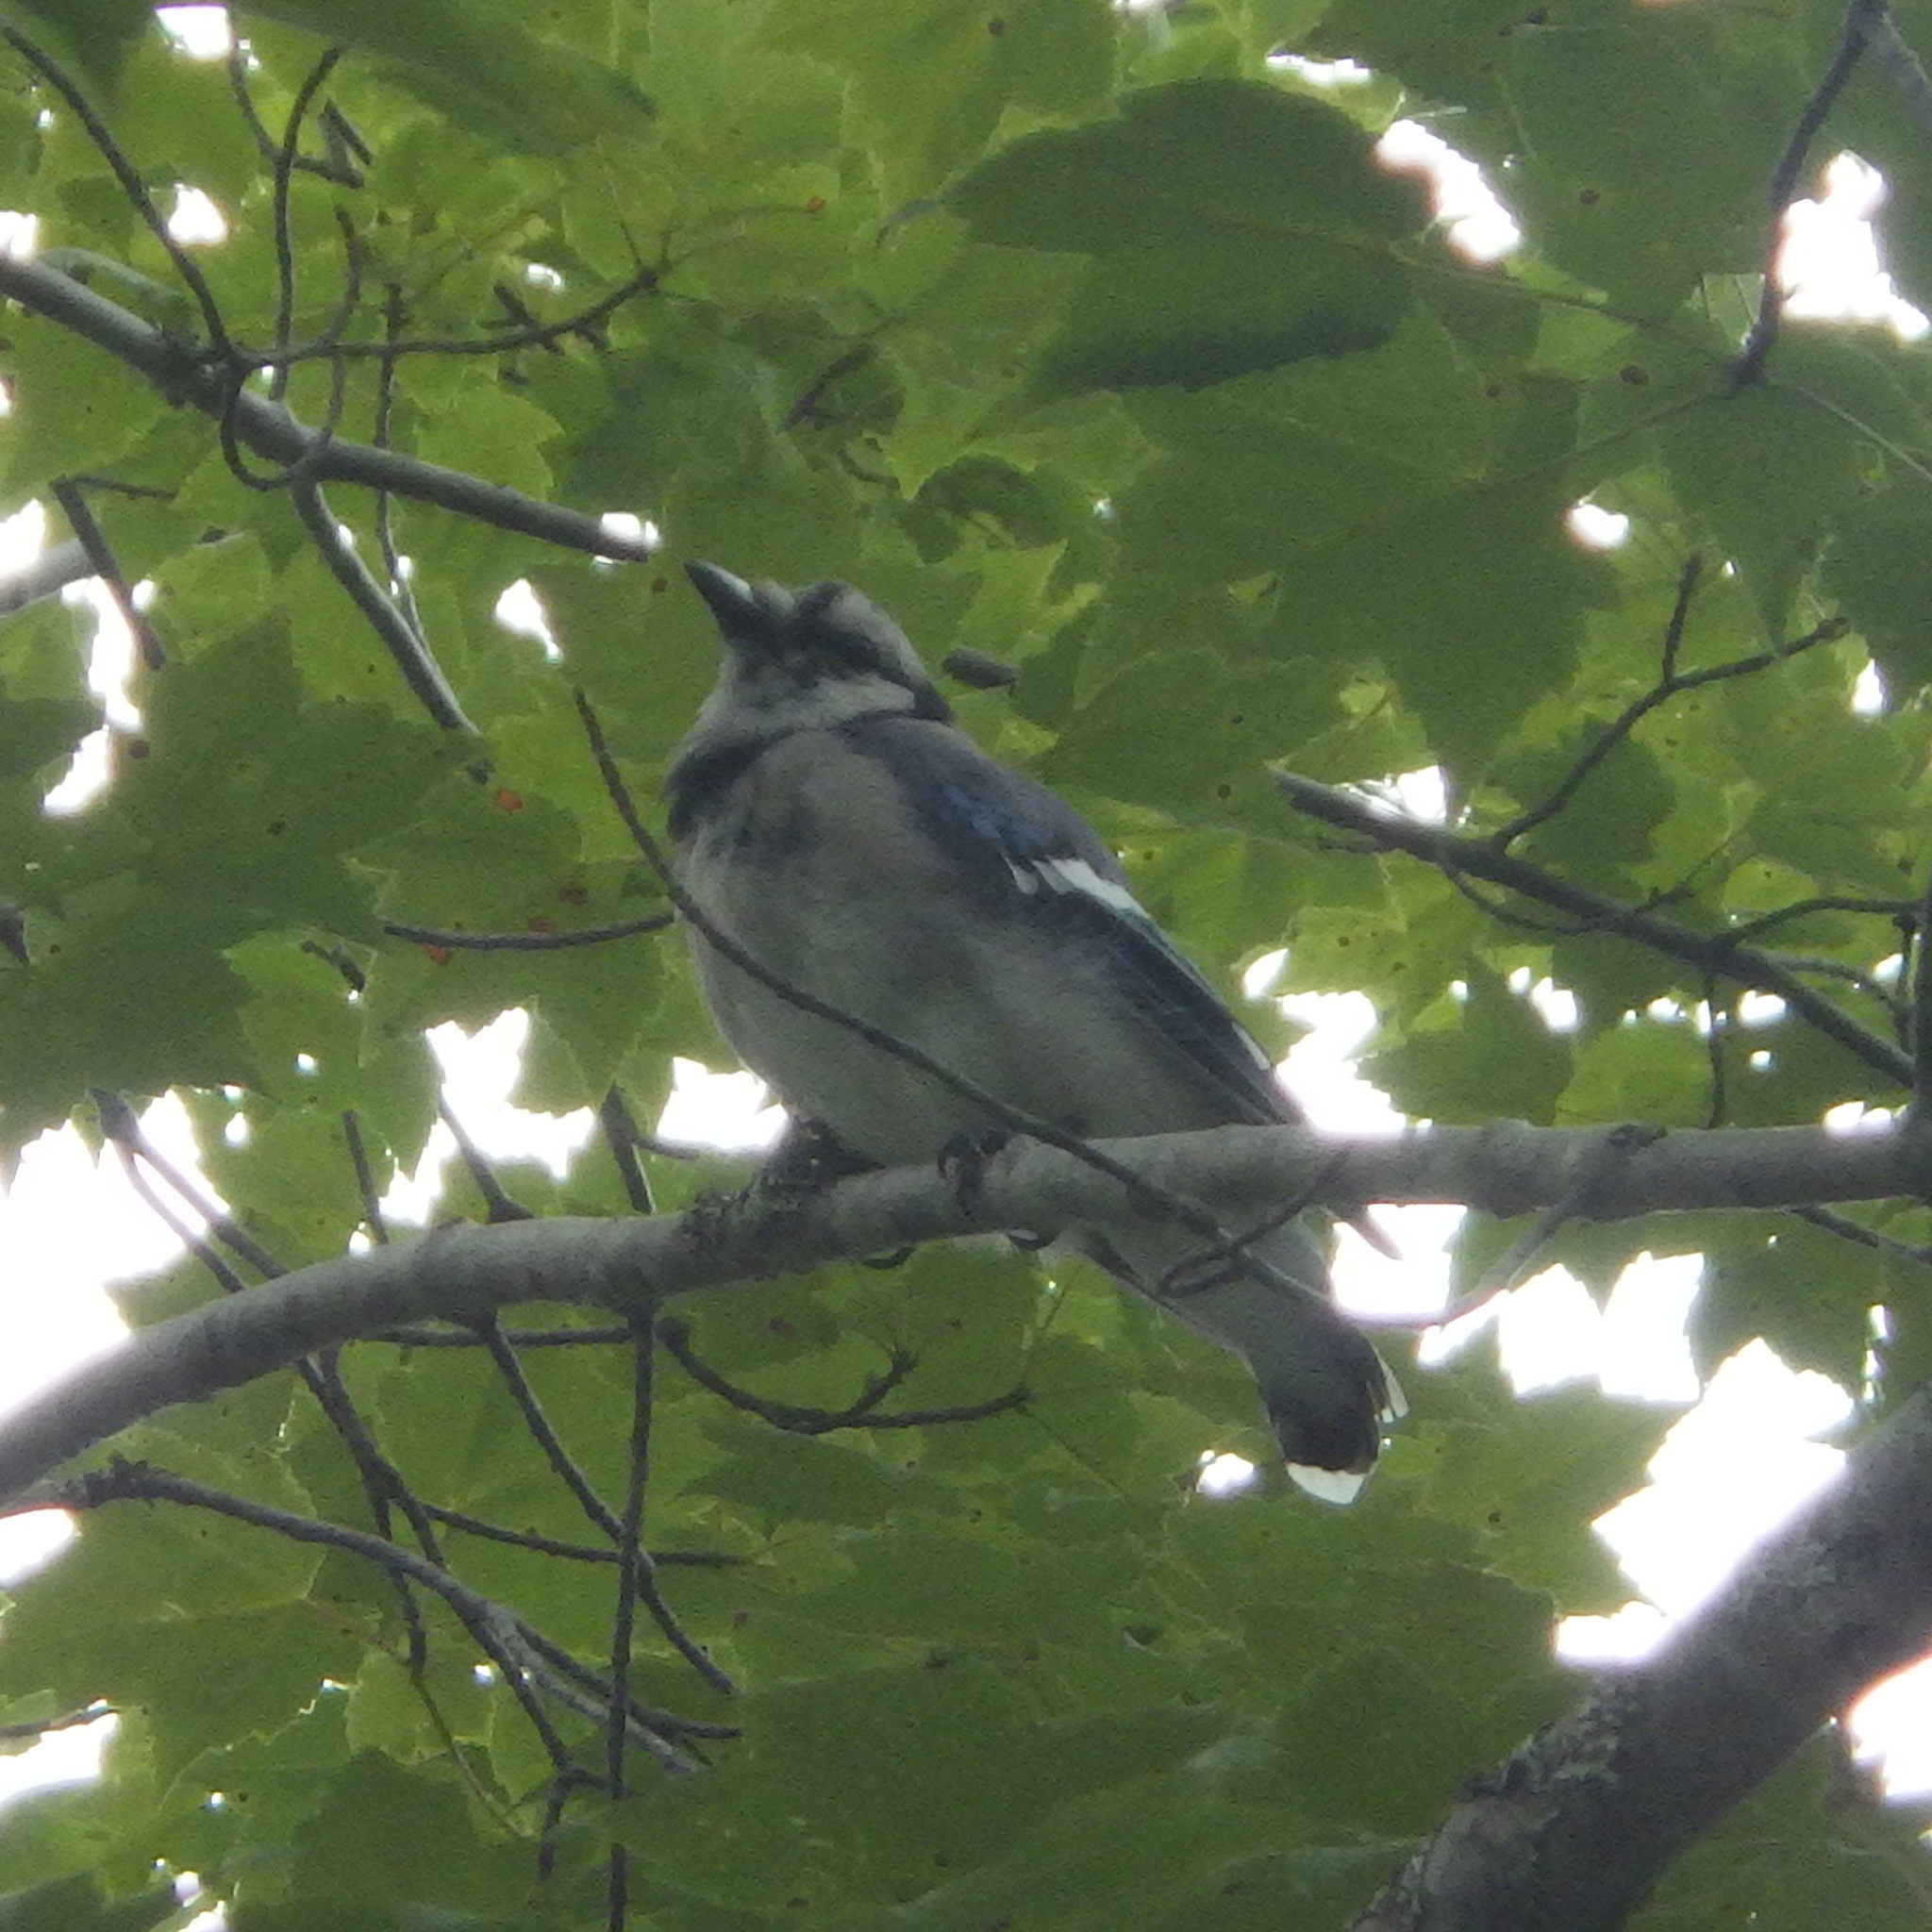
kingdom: Animalia
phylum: Chordata
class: Aves
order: Passeriformes
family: Corvidae
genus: Cyanocitta
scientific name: Cyanocitta cristata
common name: Blue jay
